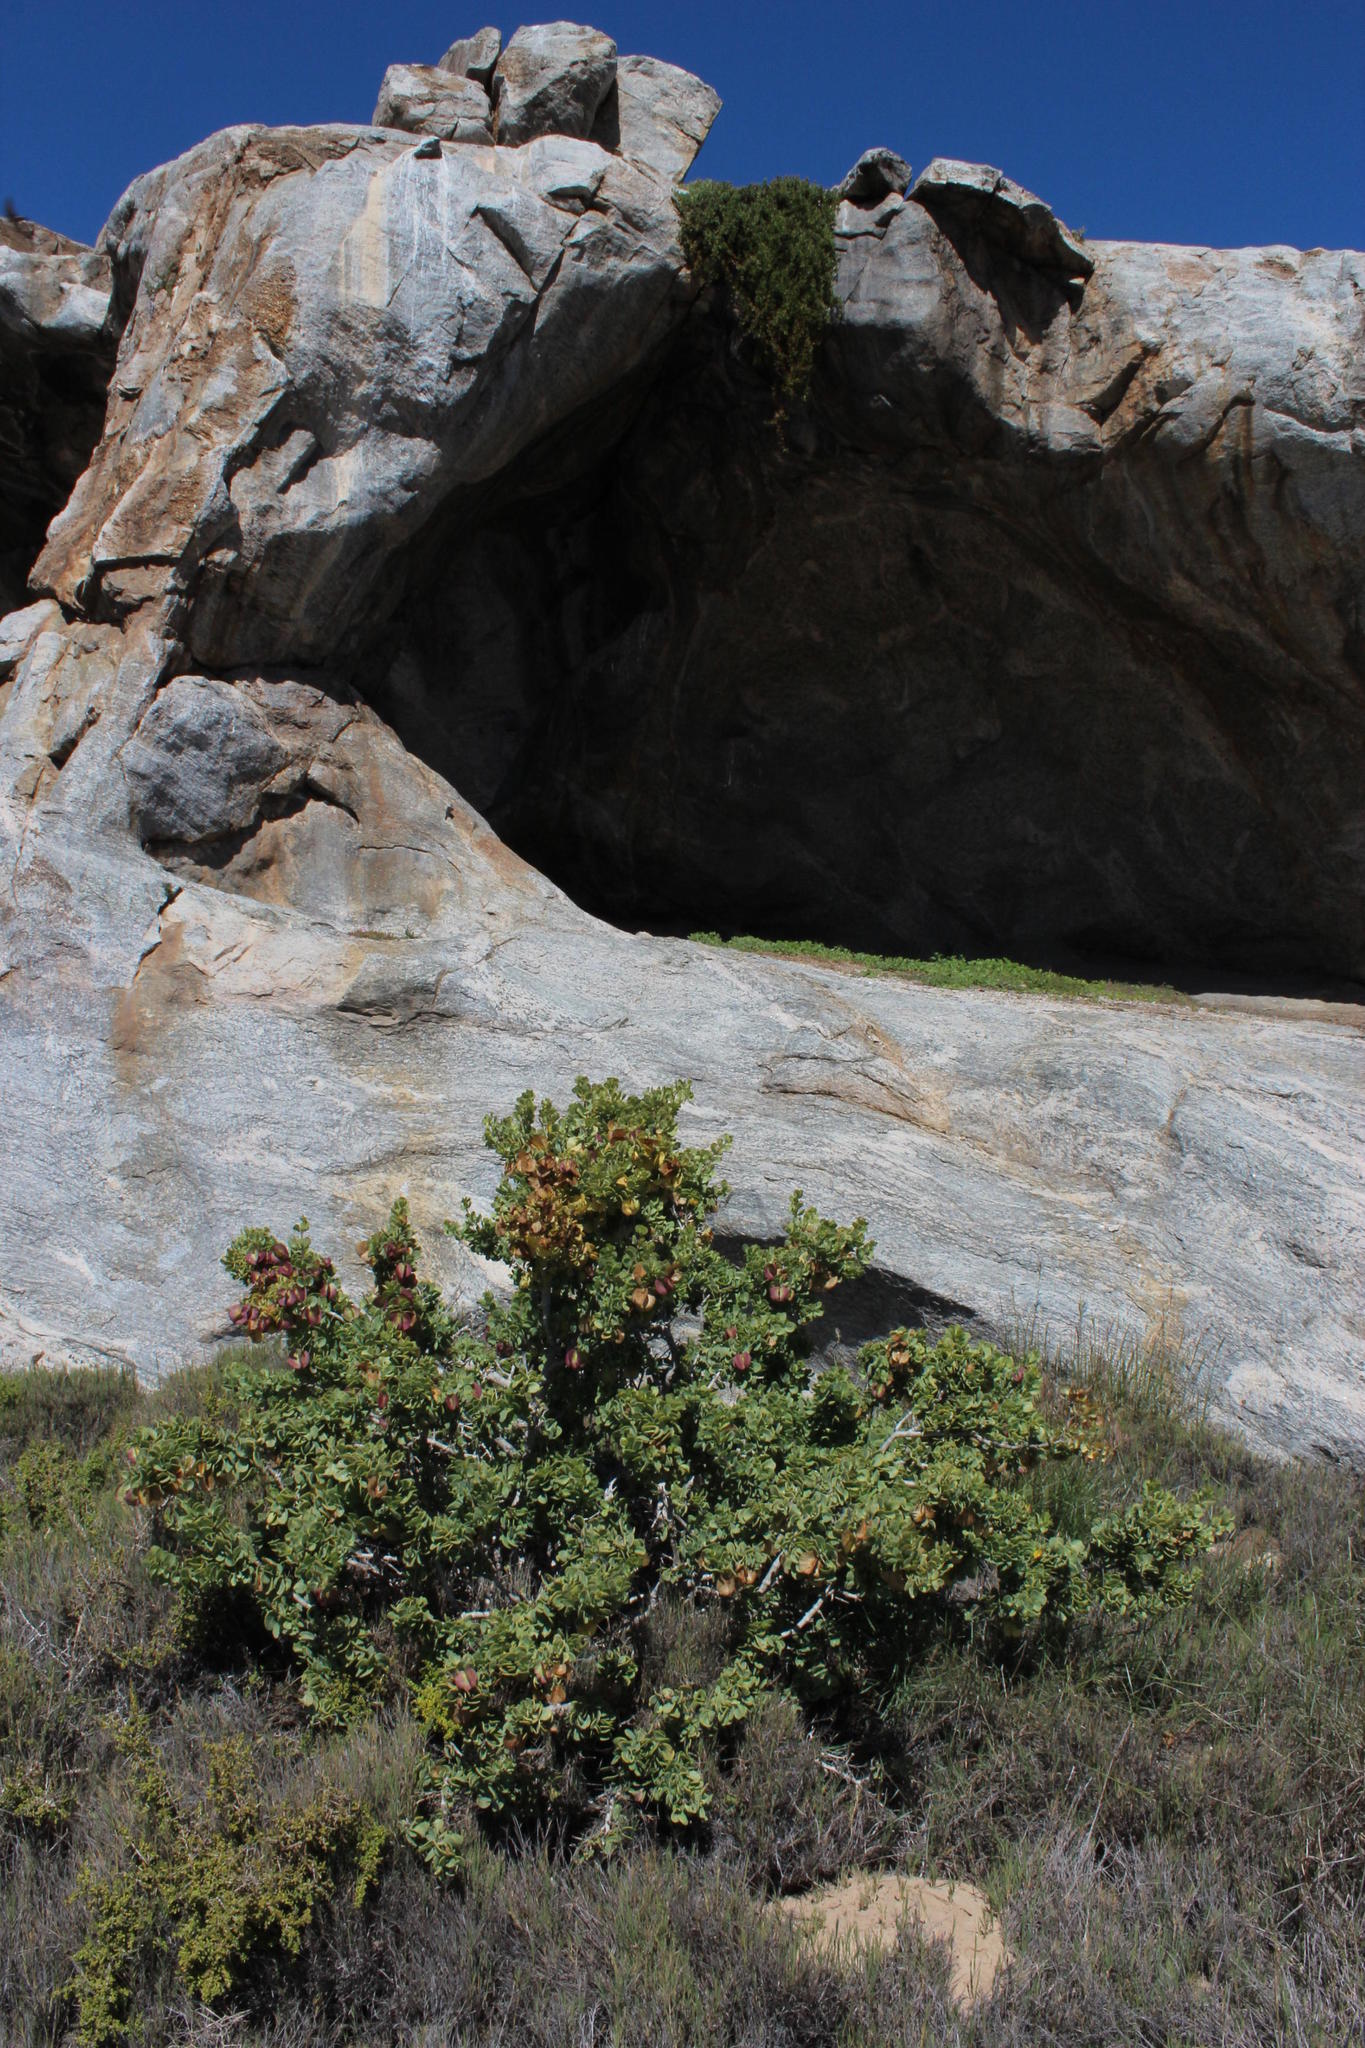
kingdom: Plantae
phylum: Tracheophyta
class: Magnoliopsida
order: Zygophyllales
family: Zygophyllaceae
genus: Roepera
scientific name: Roepera morgsana
